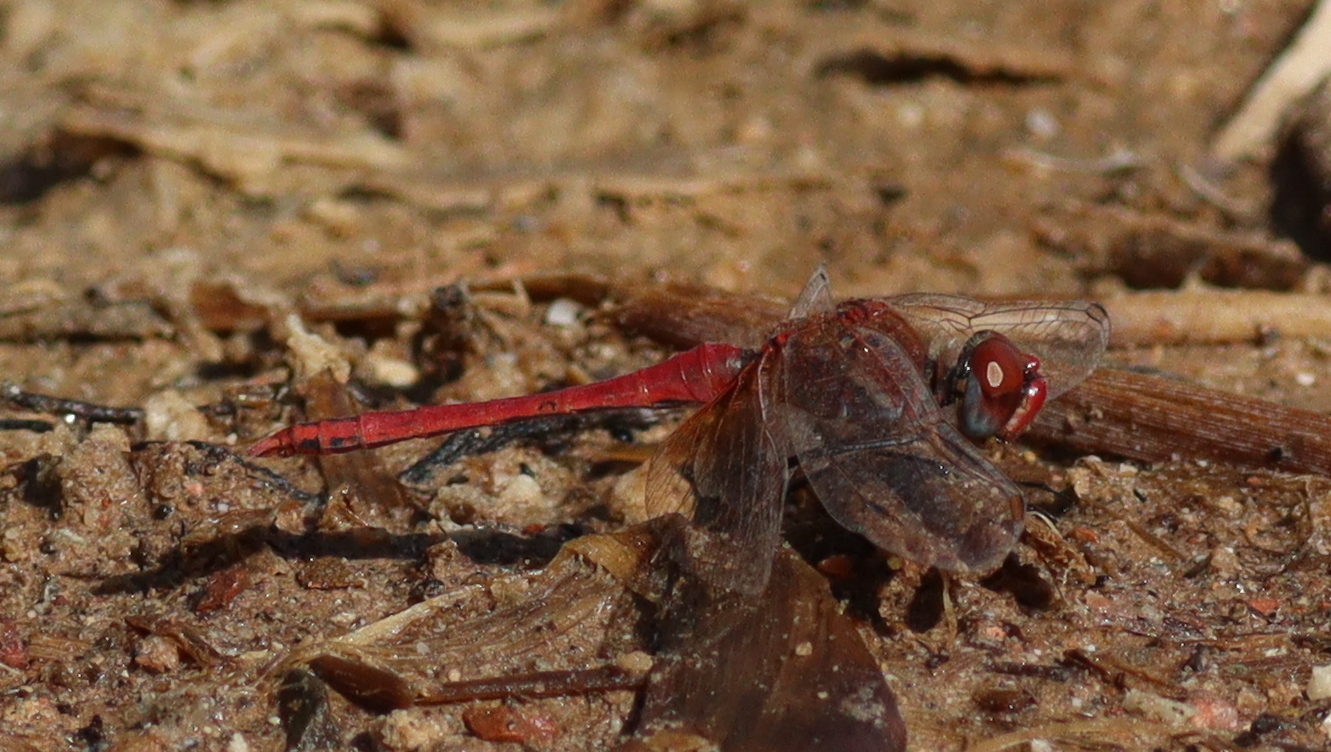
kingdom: Animalia
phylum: Arthropoda
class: Insecta
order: Odonata
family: Libellulidae
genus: Sympetrum
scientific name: Sympetrum fonscolombii
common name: Red-veined darter
